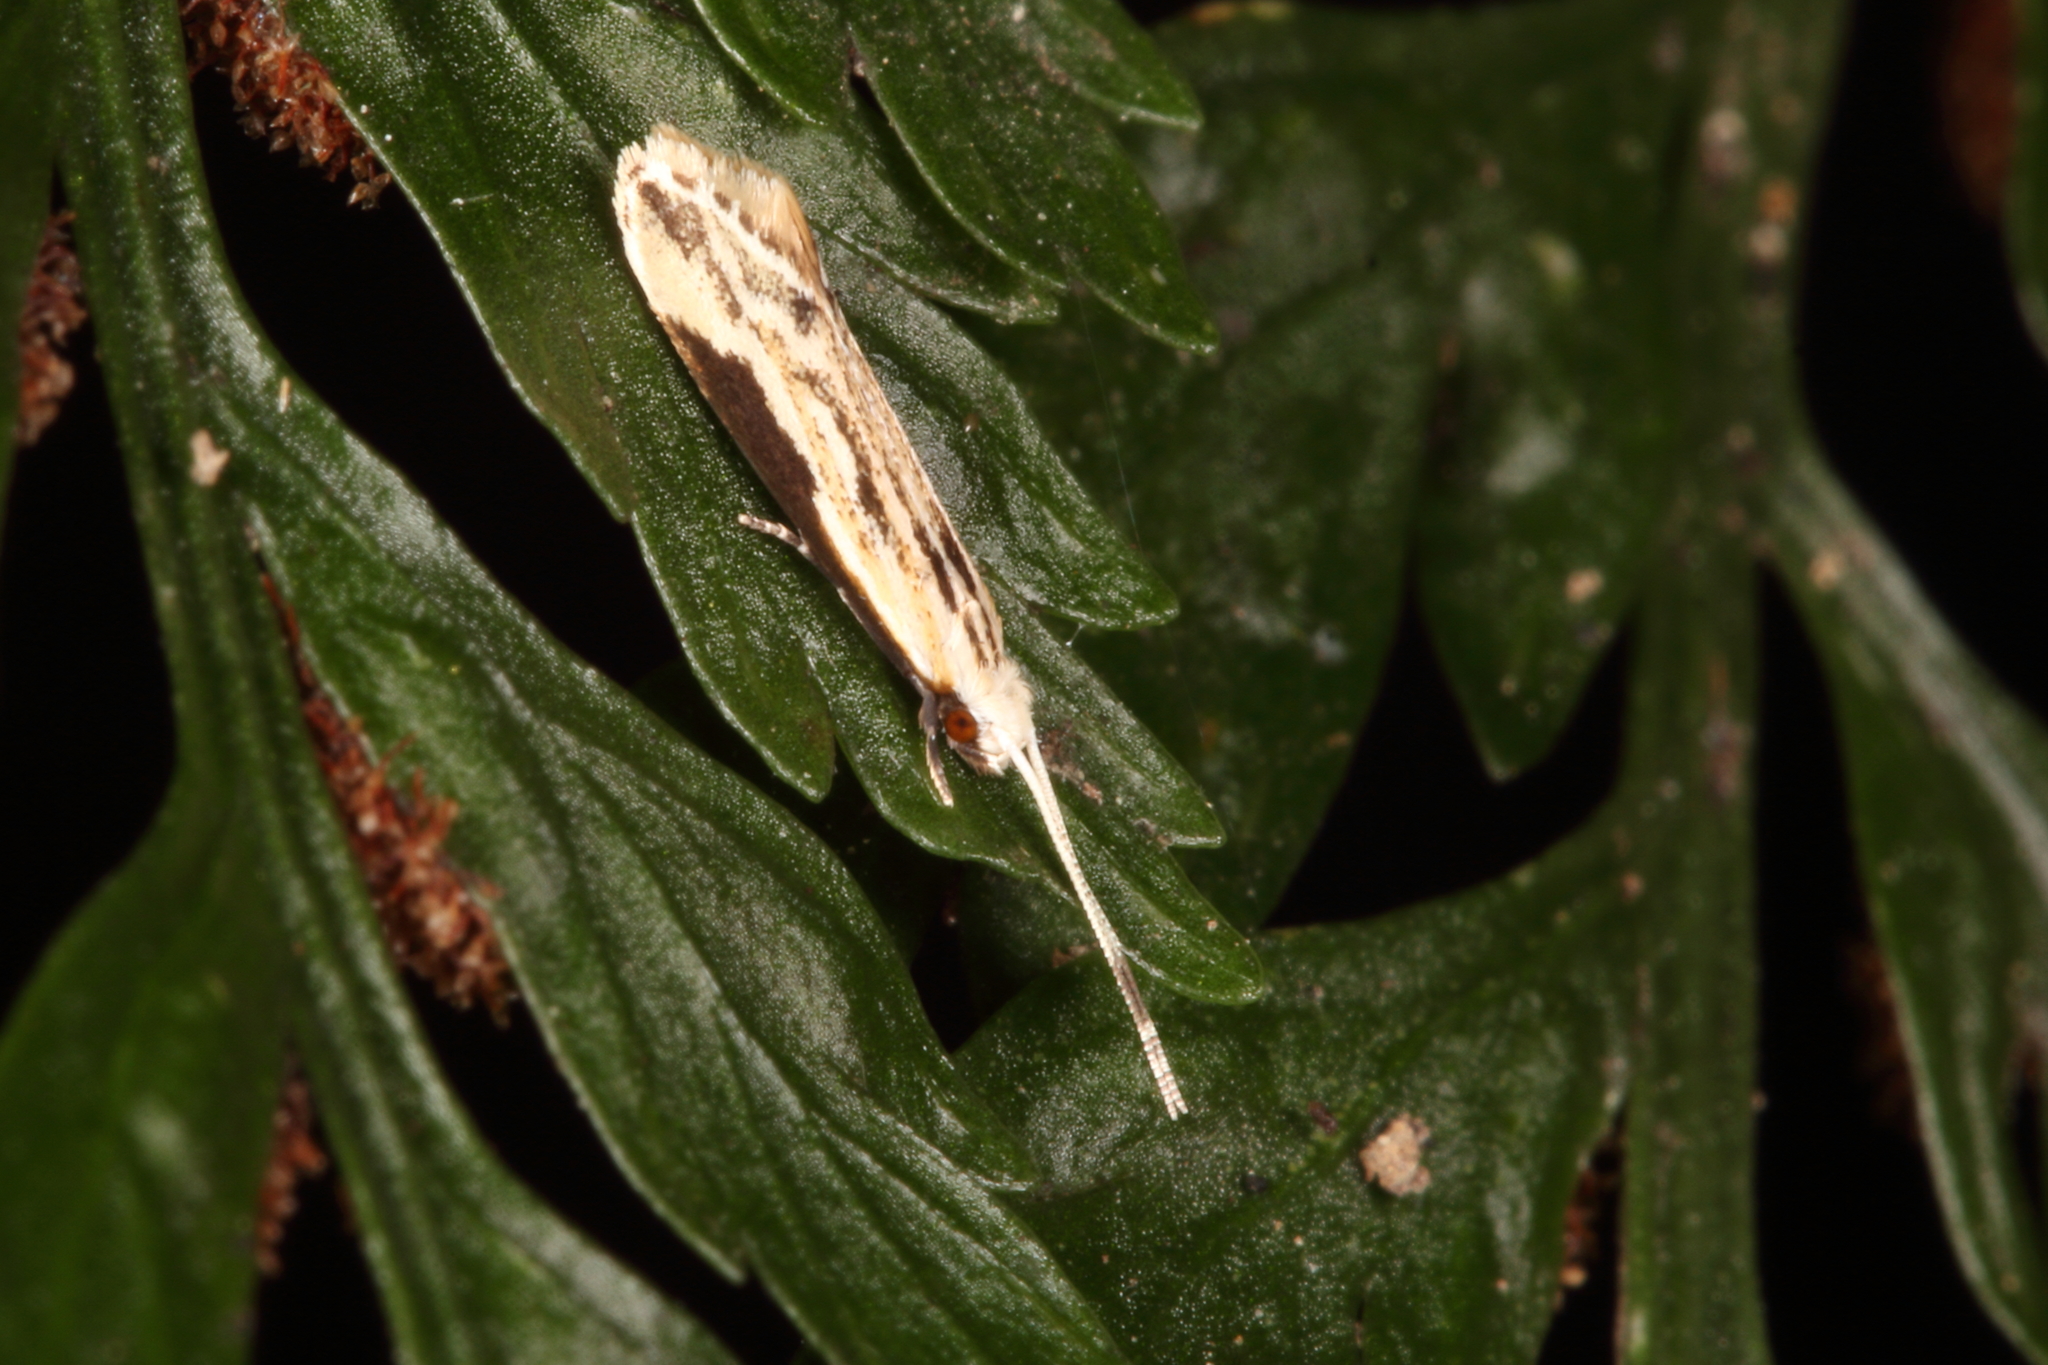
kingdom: Animalia
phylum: Arthropoda
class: Insecta
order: Lepidoptera
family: Tineidae
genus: Sagephora
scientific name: Sagephora phortegella
